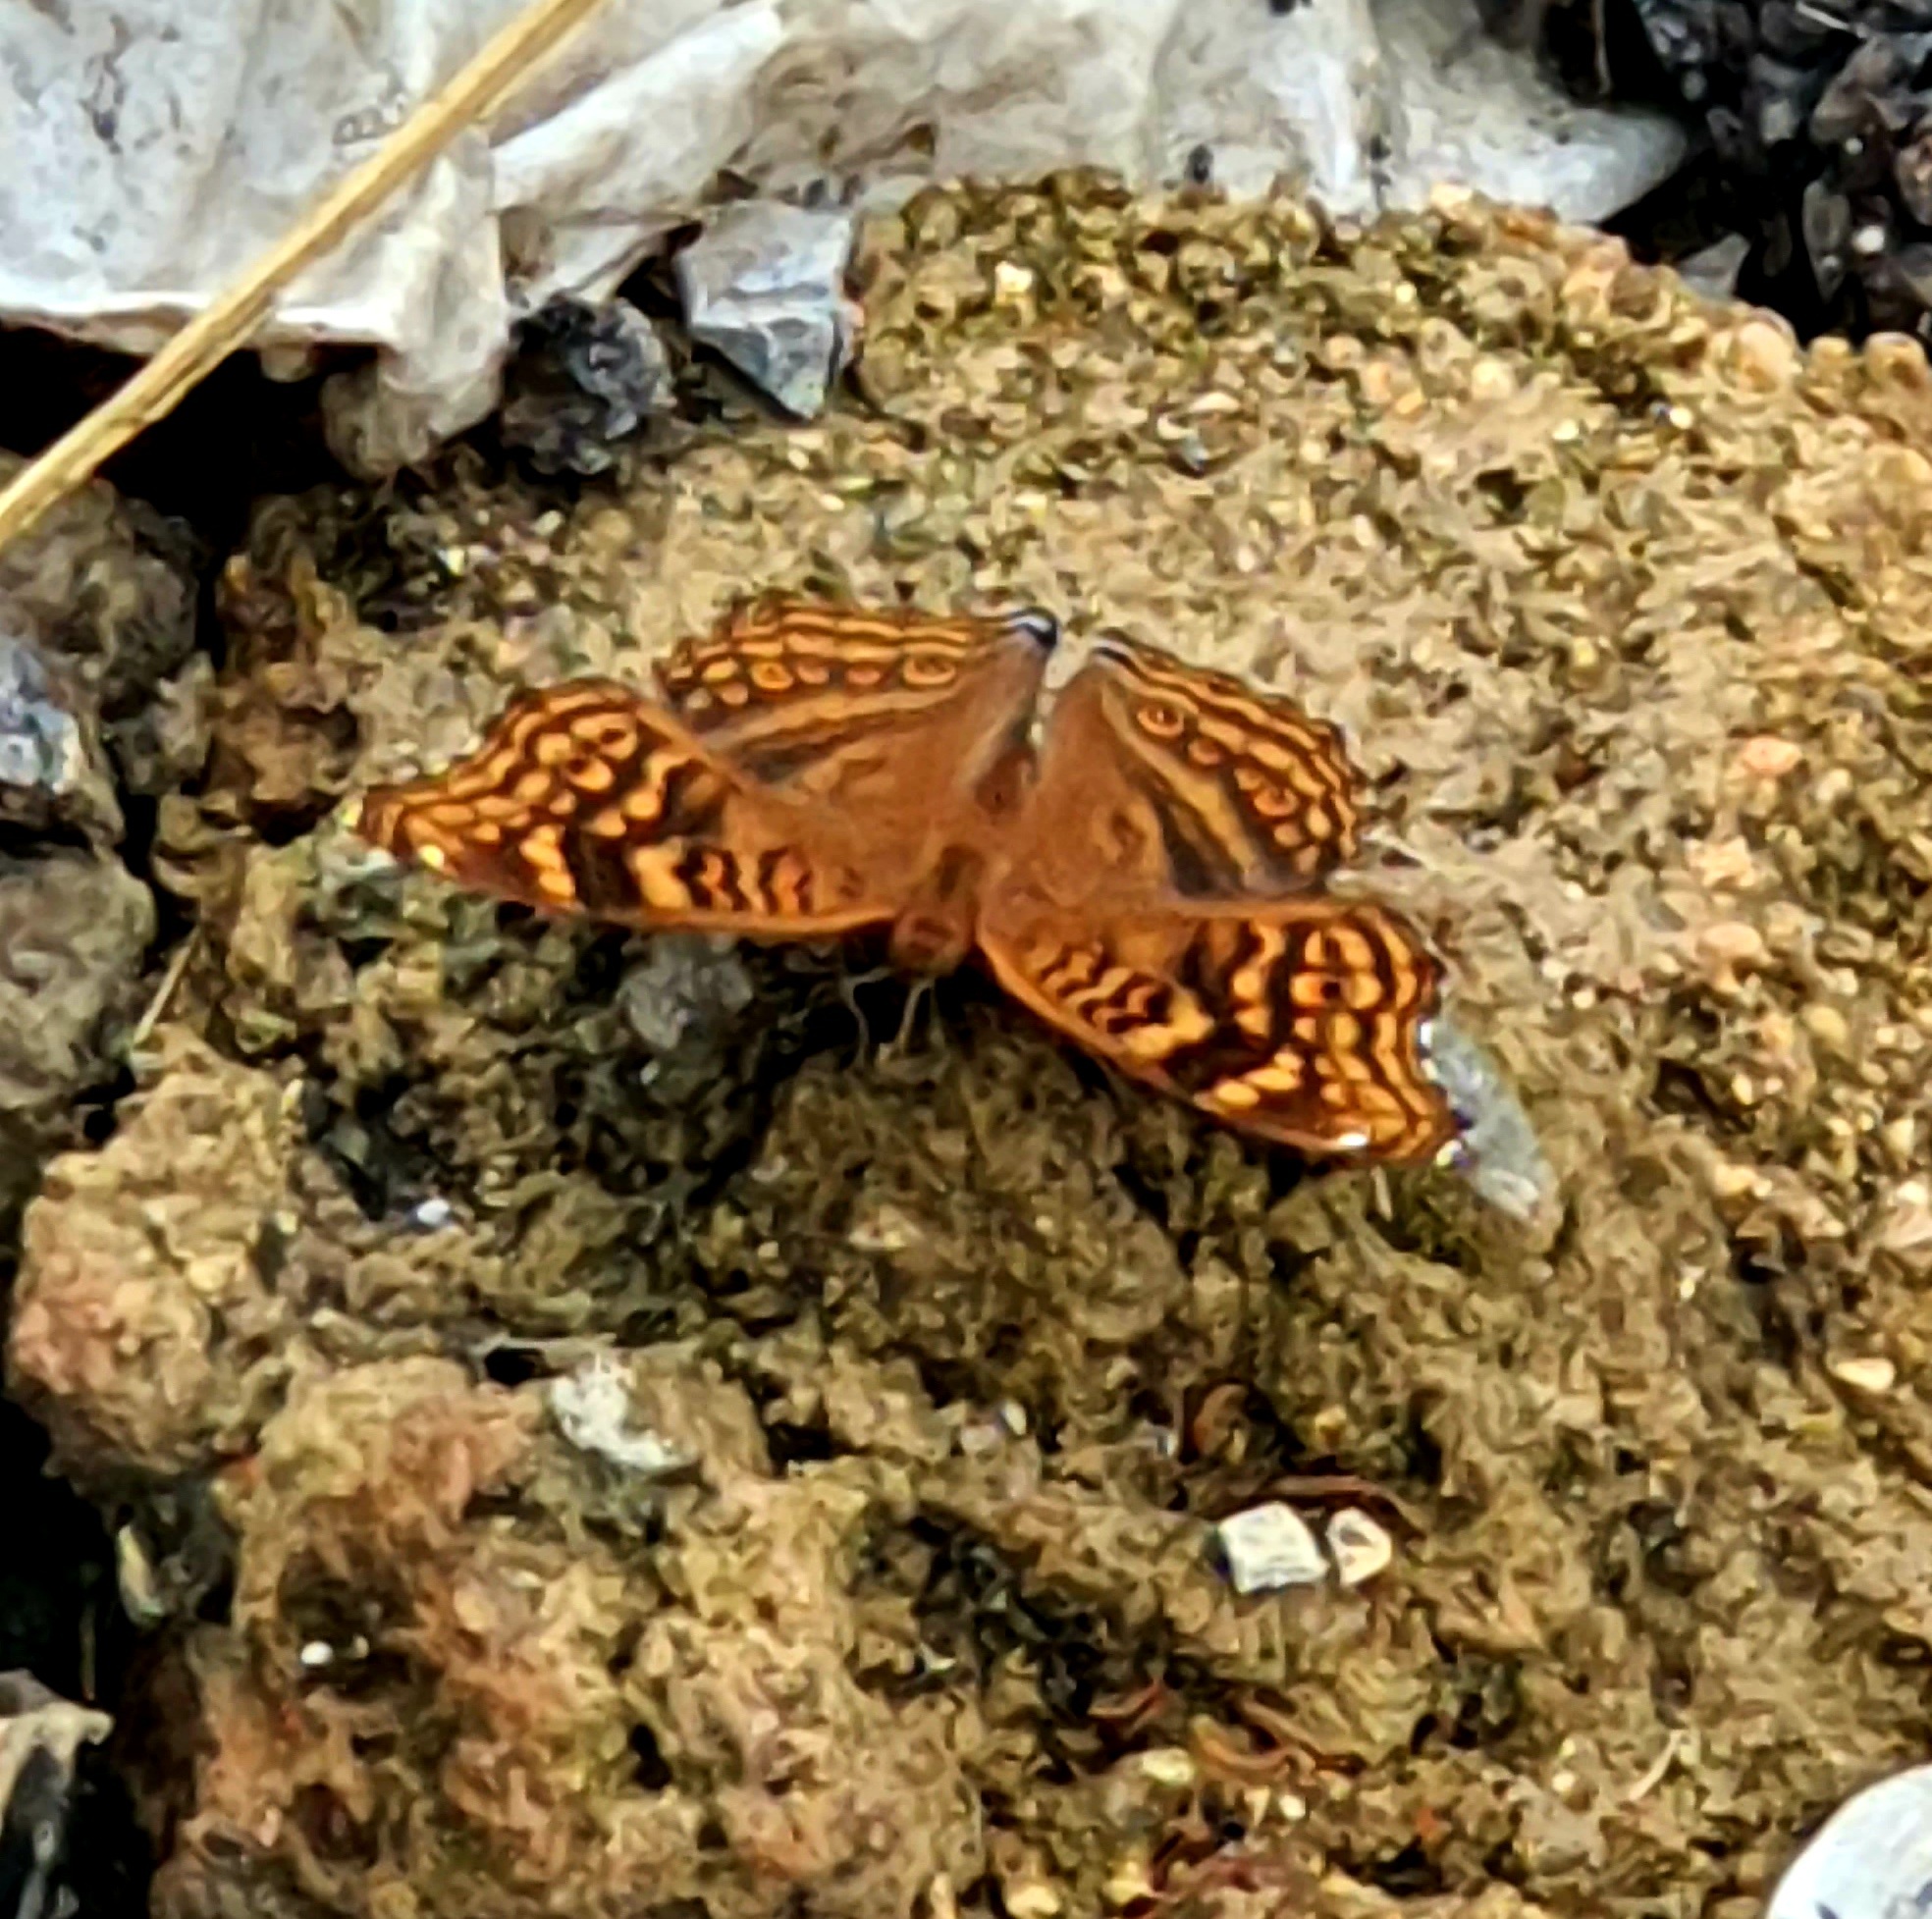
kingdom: Animalia
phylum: Arthropoda
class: Insecta
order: Lepidoptera
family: Nymphalidae
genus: Junonia
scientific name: Junonia chorimene
